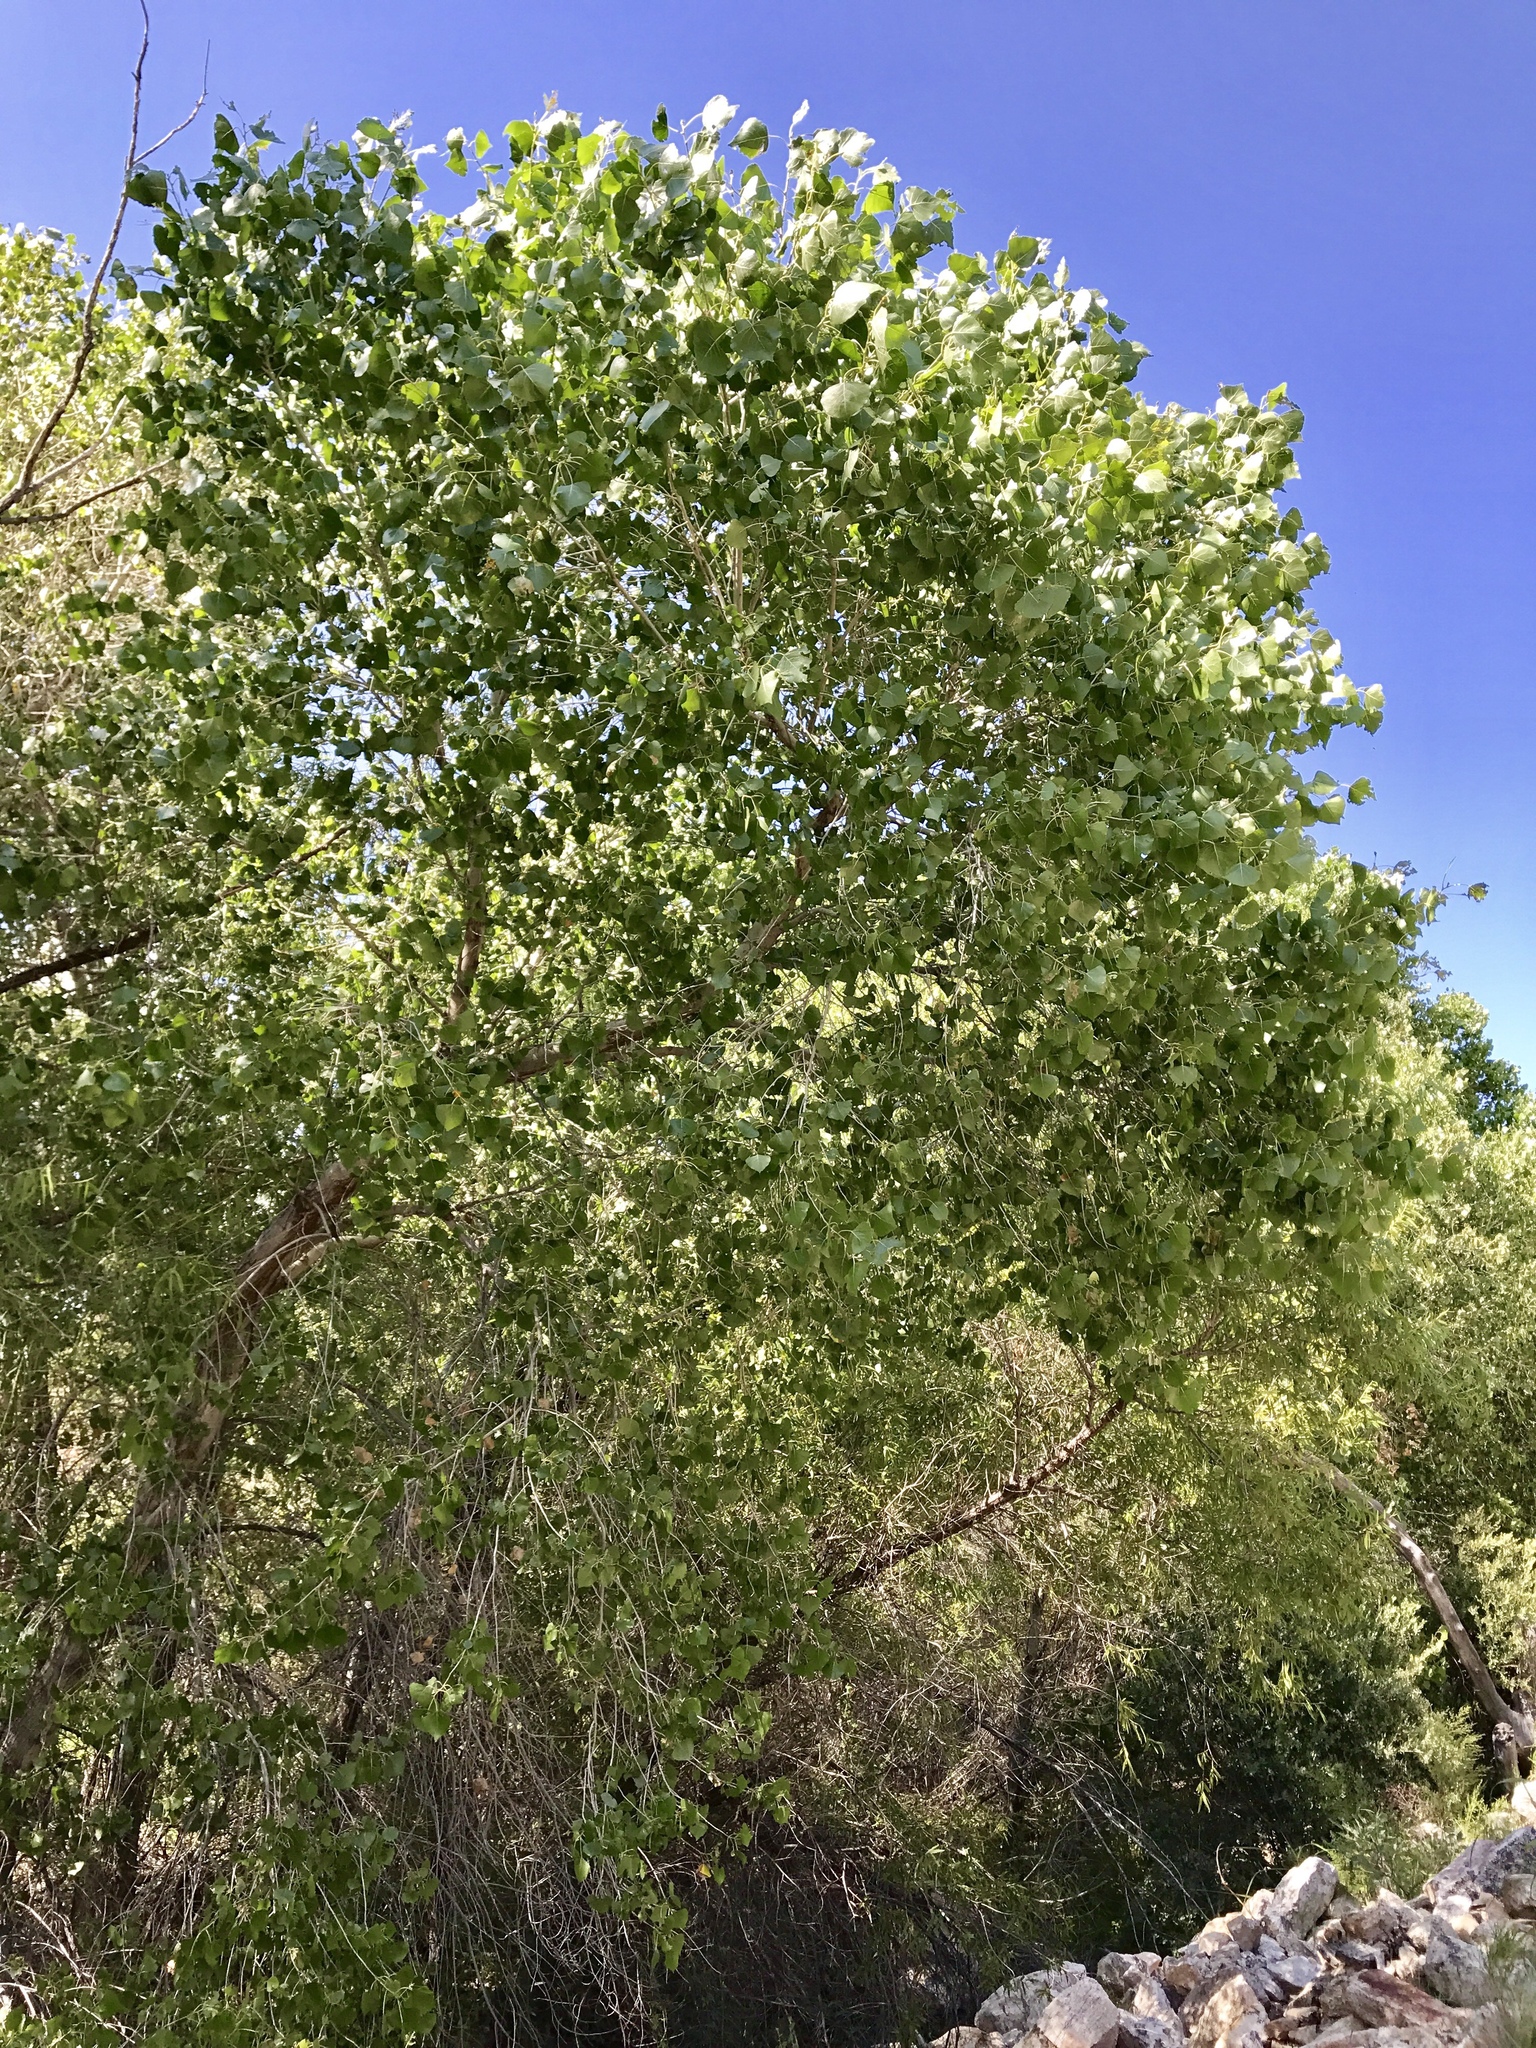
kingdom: Plantae
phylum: Tracheophyta
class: Magnoliopsida
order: Malpighiales
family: Salicaceae
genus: Populus
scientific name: Populus fremontii
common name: Fremont's cottonwood
